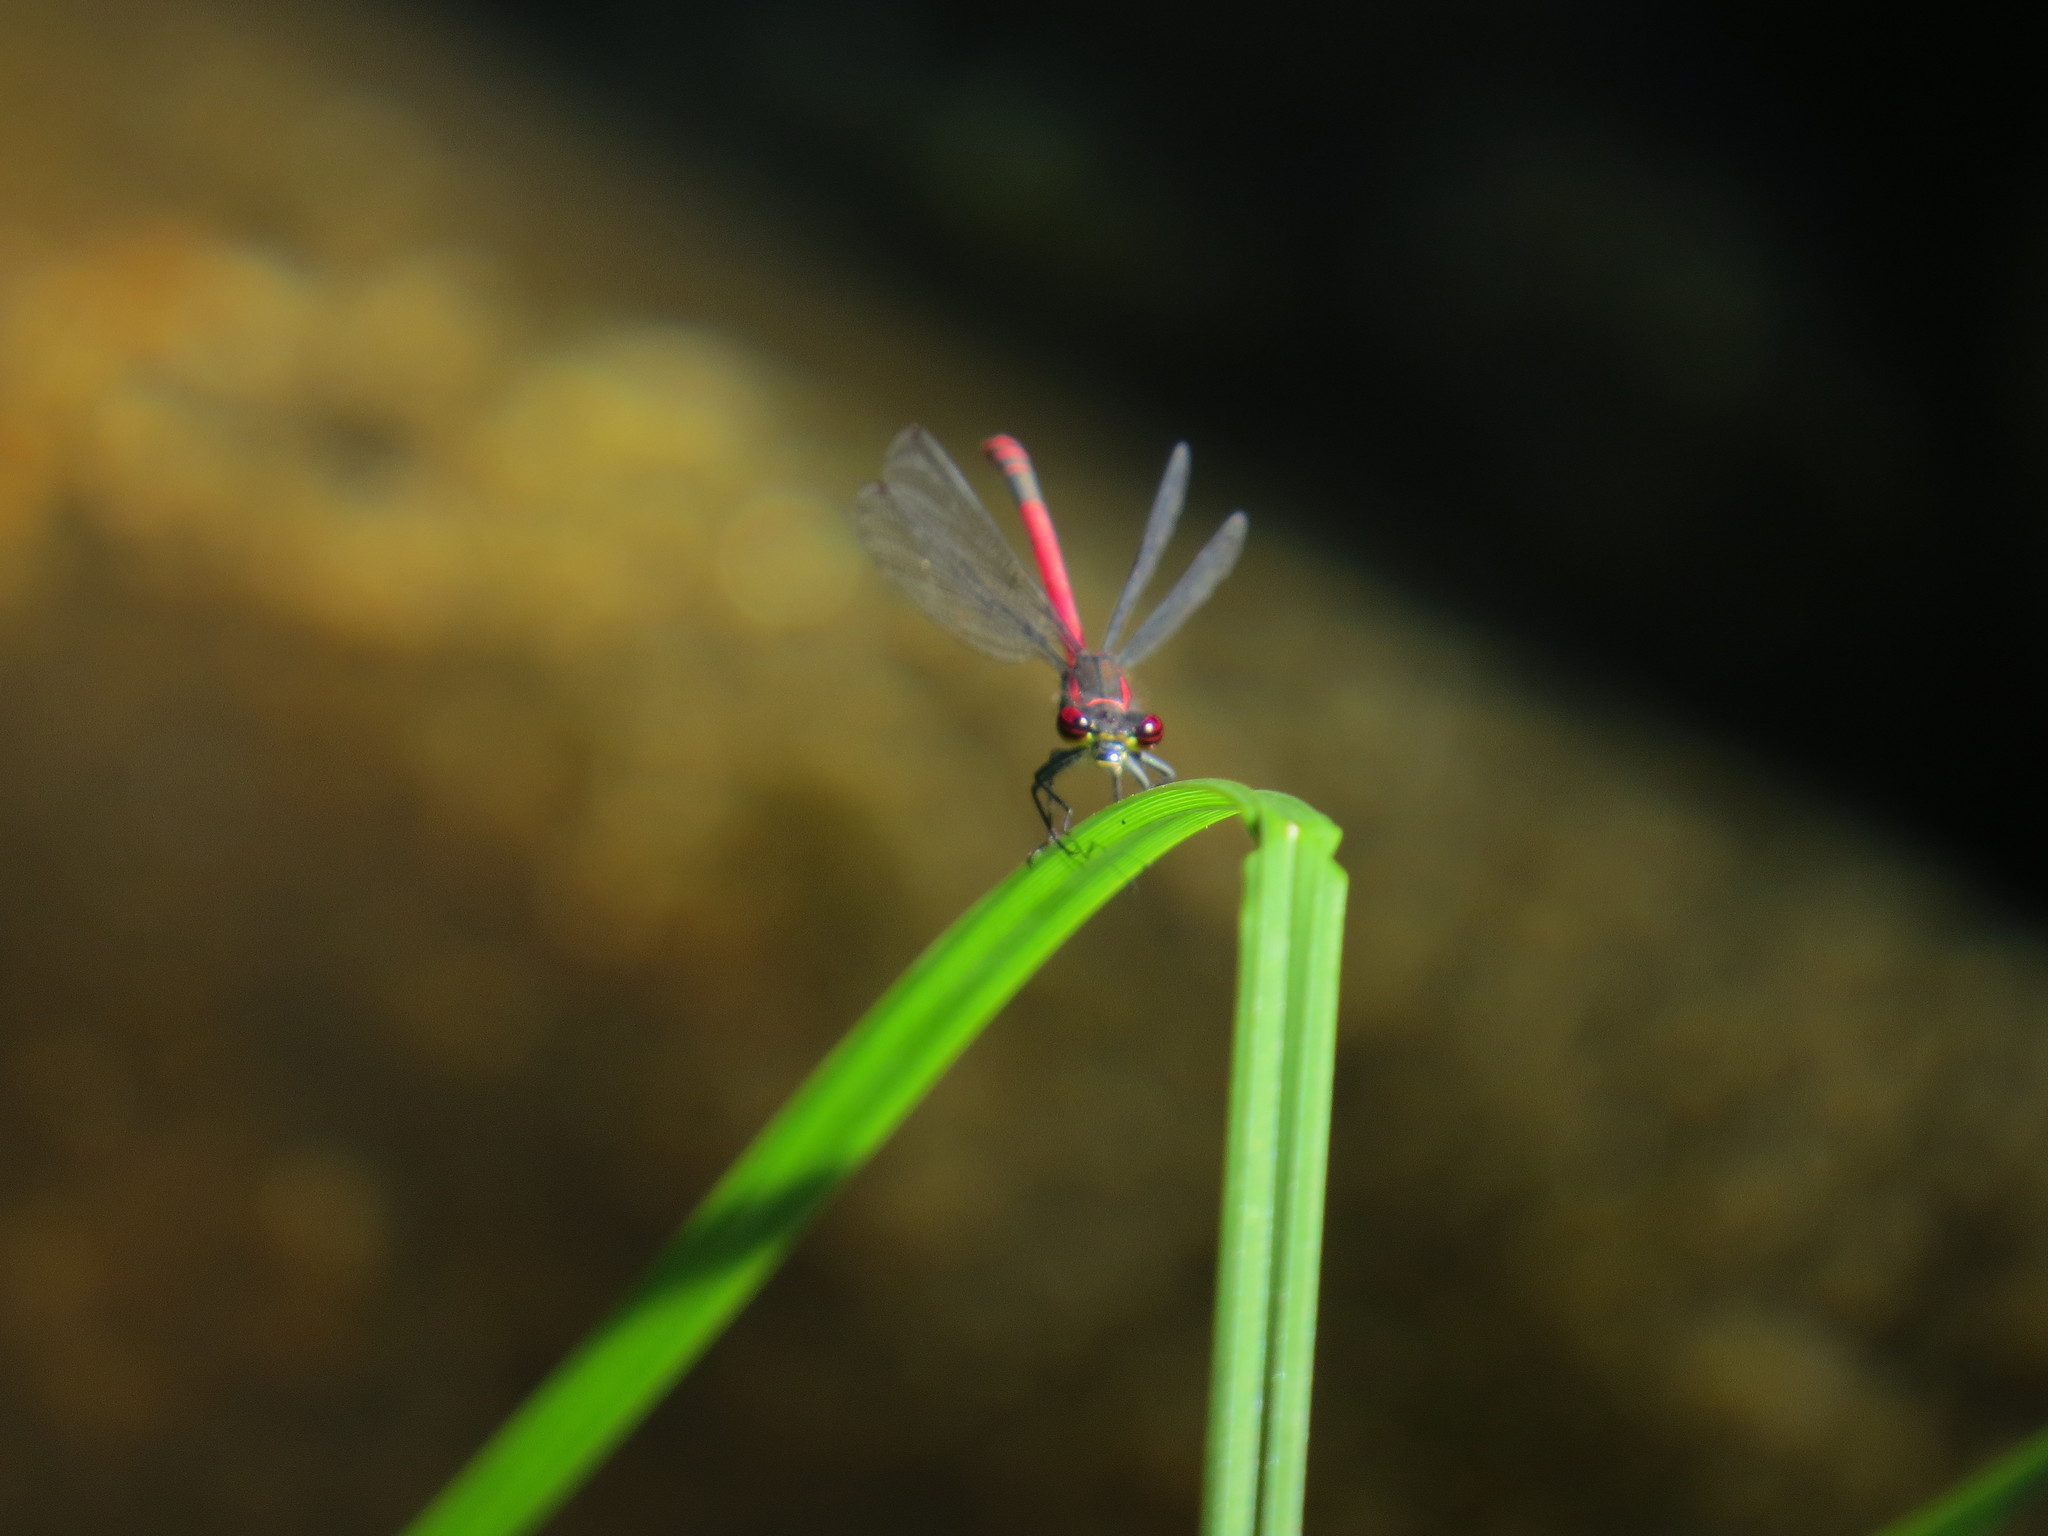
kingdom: Animalia
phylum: Arthropoda
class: Insecta
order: Odonata
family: Coenagrionidae
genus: Pyrrhosoma
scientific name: Pyrrhosoma nymphula
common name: Large red damsel
